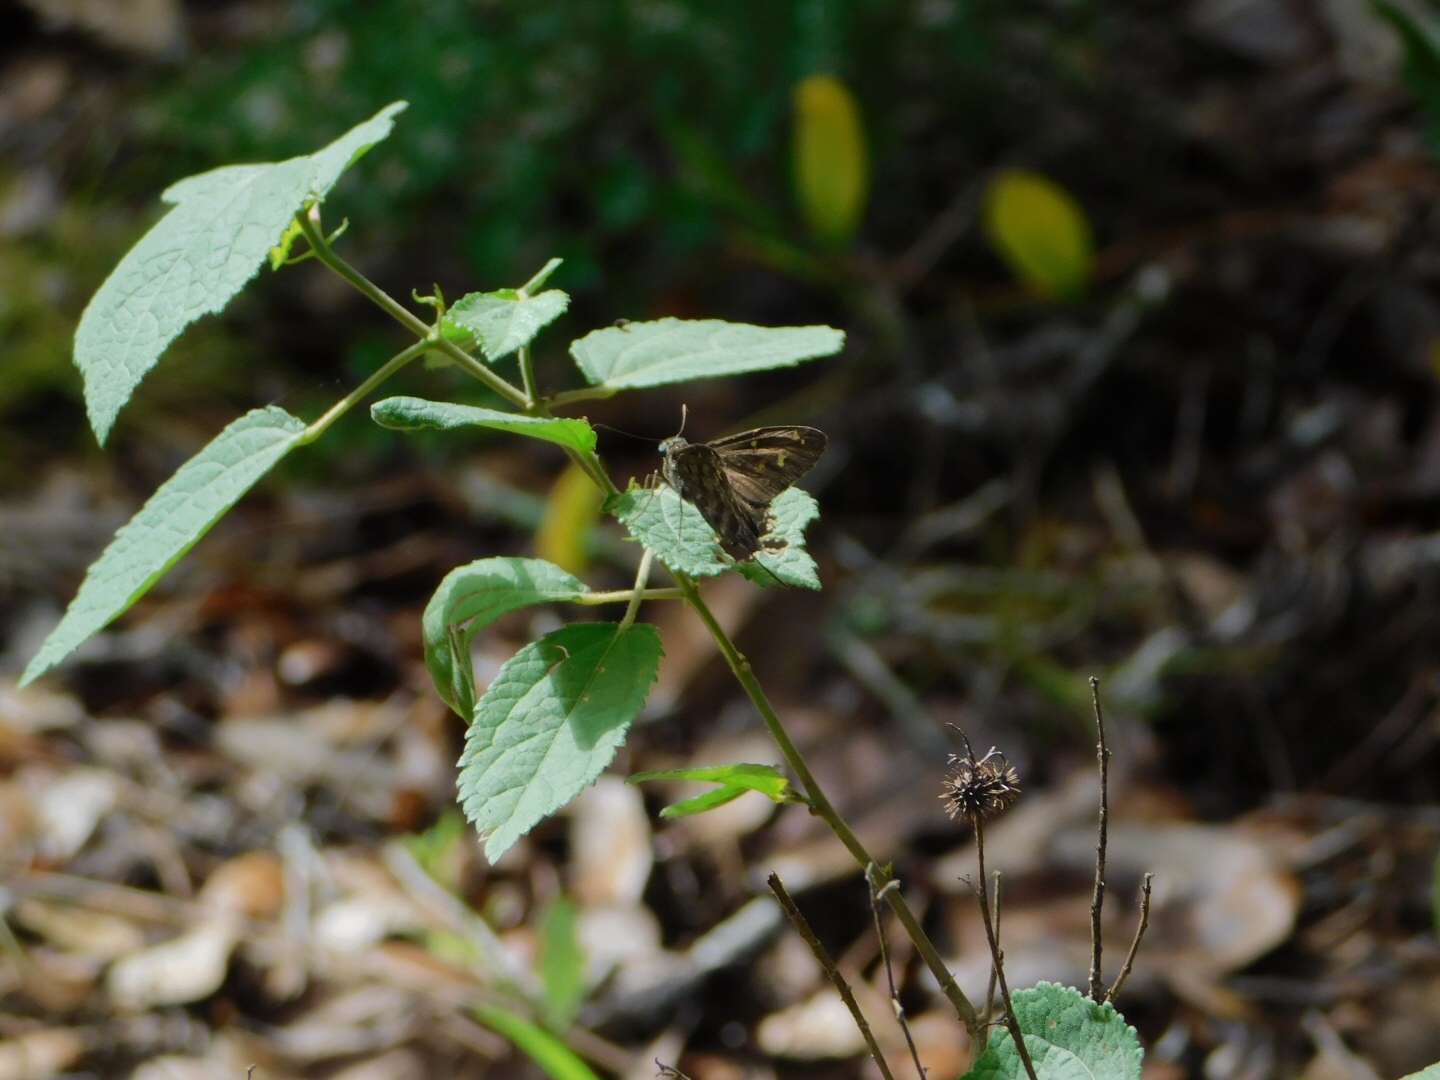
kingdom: Animalia
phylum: Arthropoda
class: Insecta
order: Lepidoptera
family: Hesperiidae
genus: Thorybes
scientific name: Thorybes
